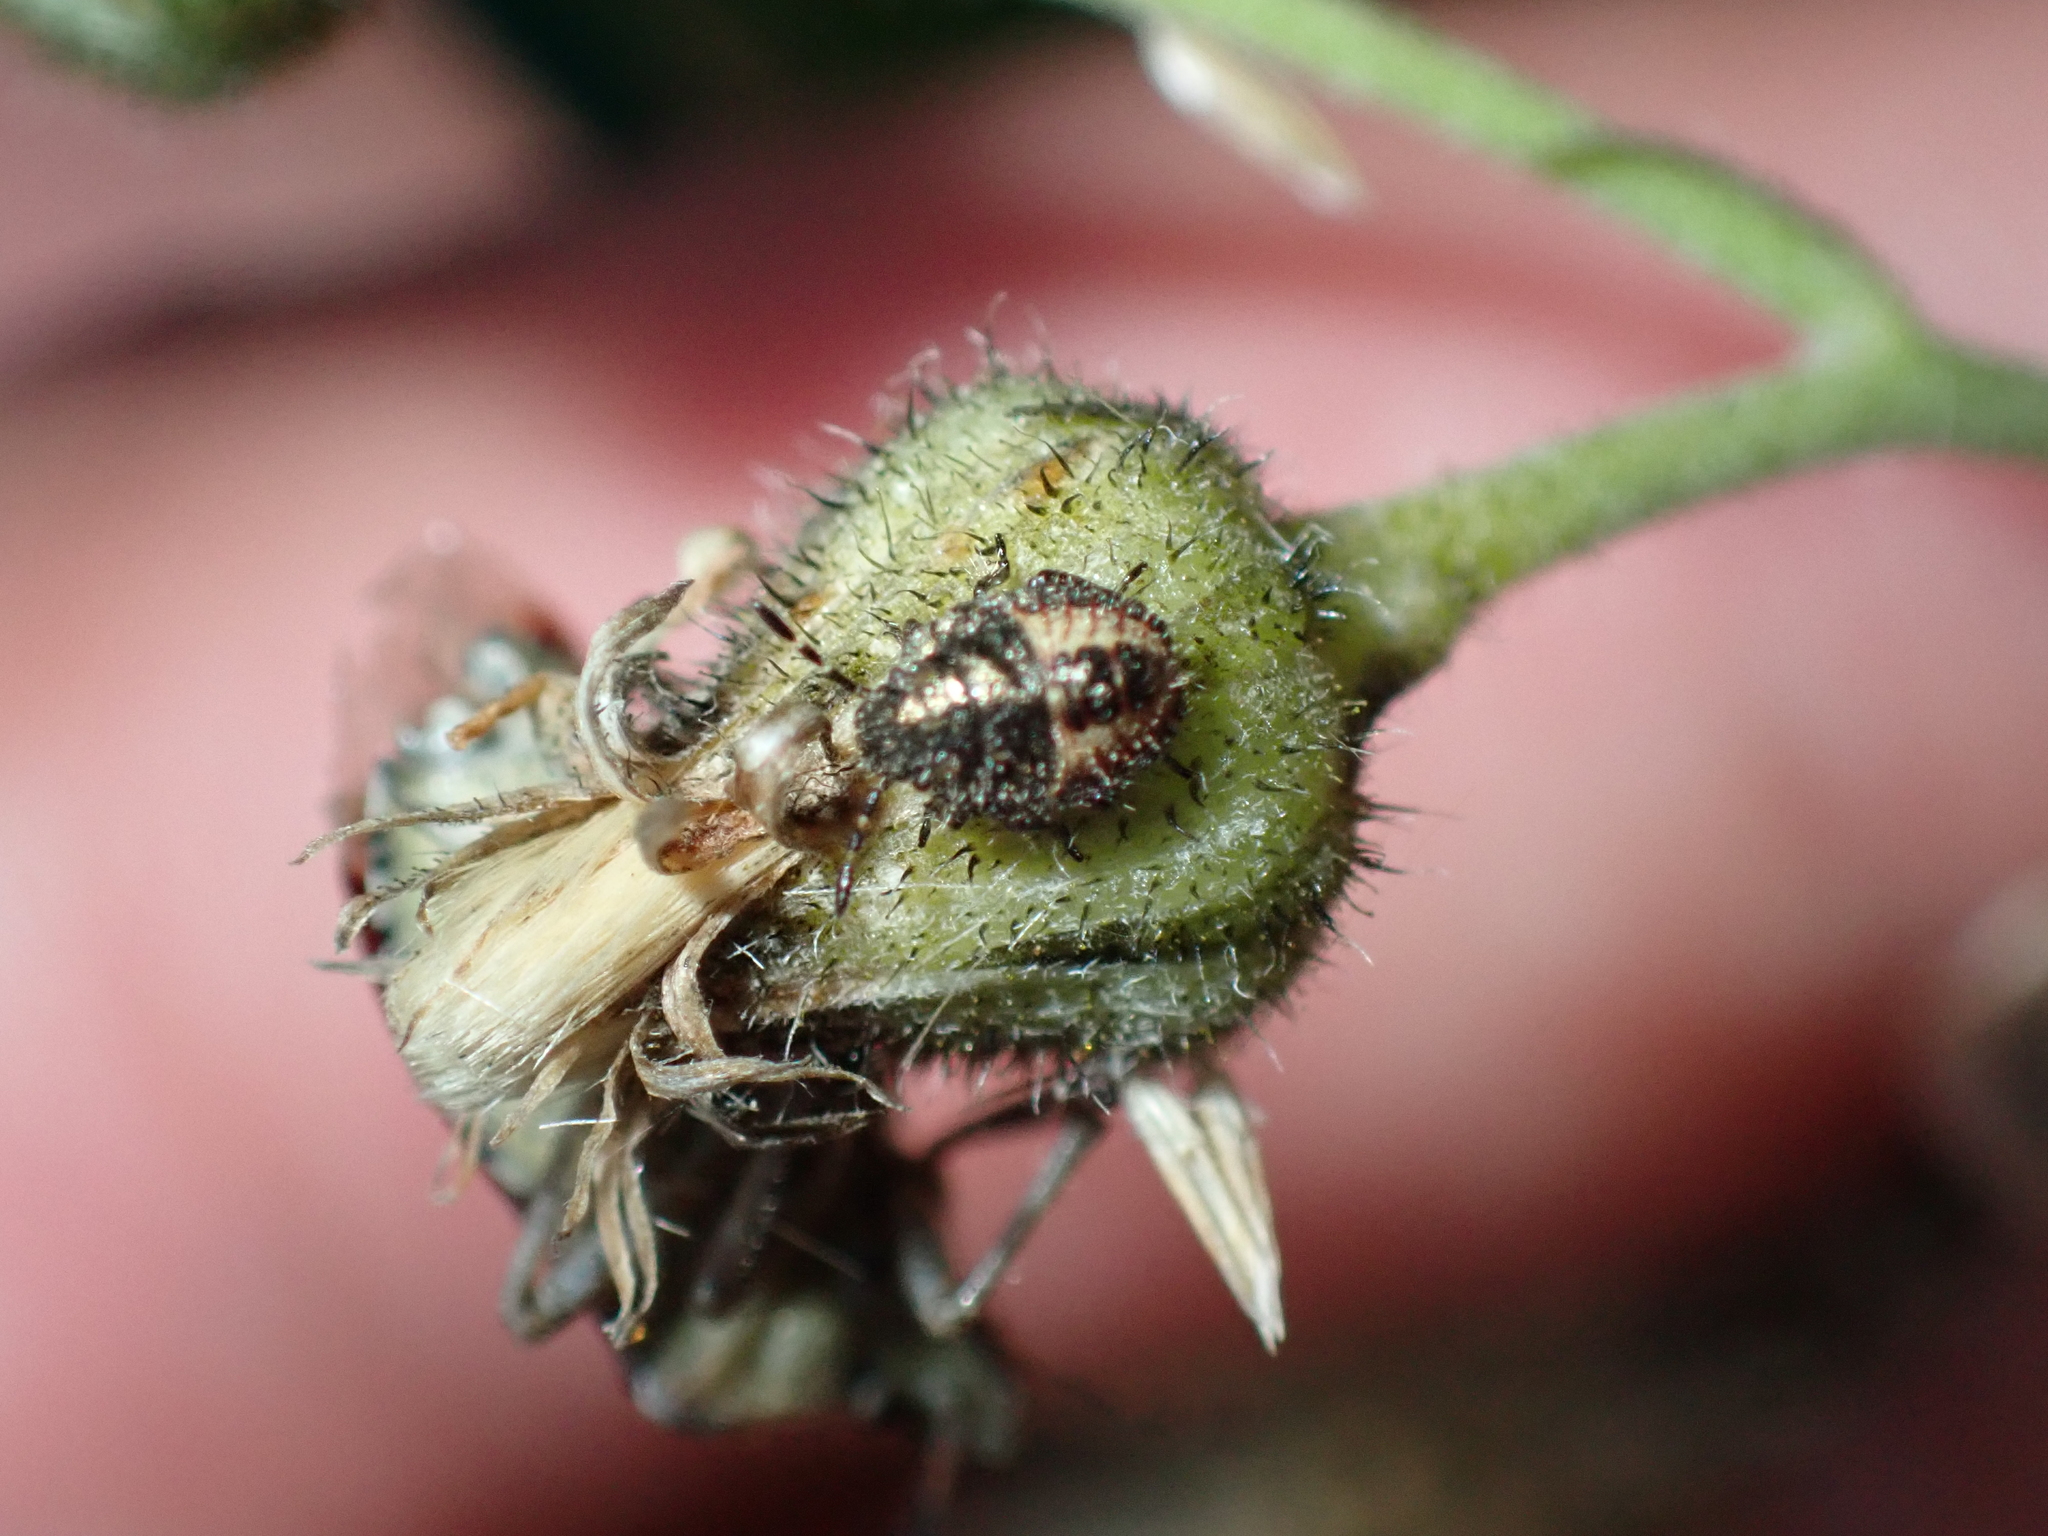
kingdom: Animalia
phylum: Arthropoda
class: Insecta
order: Hemiptera
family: Pentatomidae
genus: Dolycoris
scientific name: Dolycoris baccarum
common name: Sloe bug
